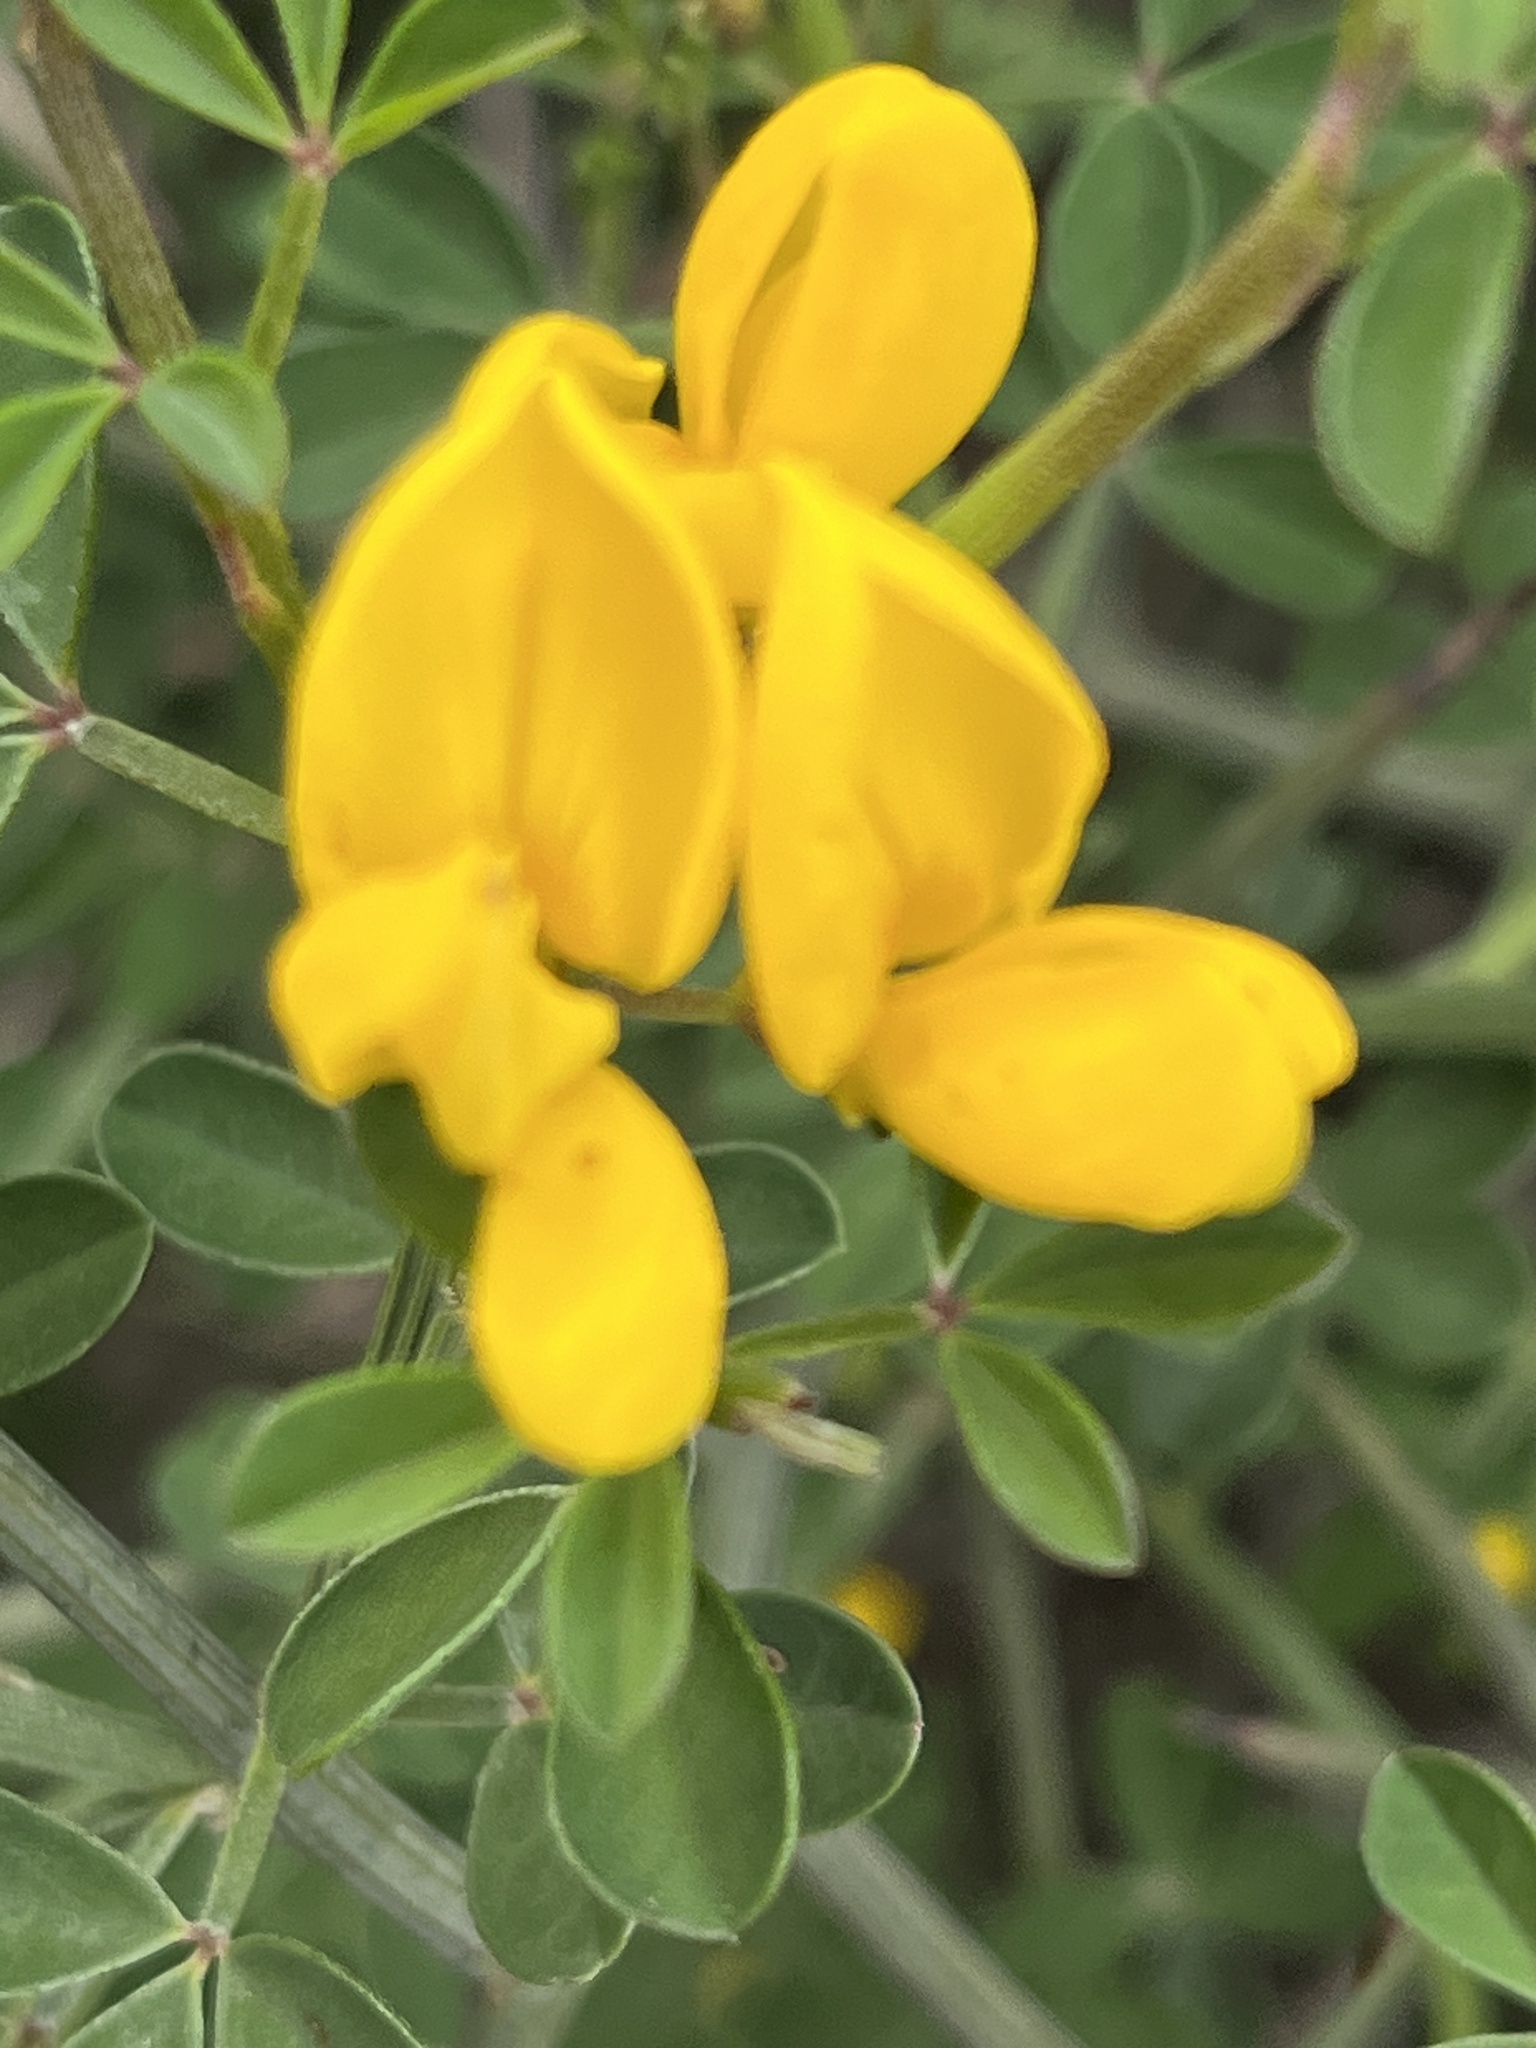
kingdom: Plantae
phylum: Tracheophyta
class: Magnoliopsida
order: Fabales
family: Fabaceae
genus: Calicotome
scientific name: Calicotome spinosa
